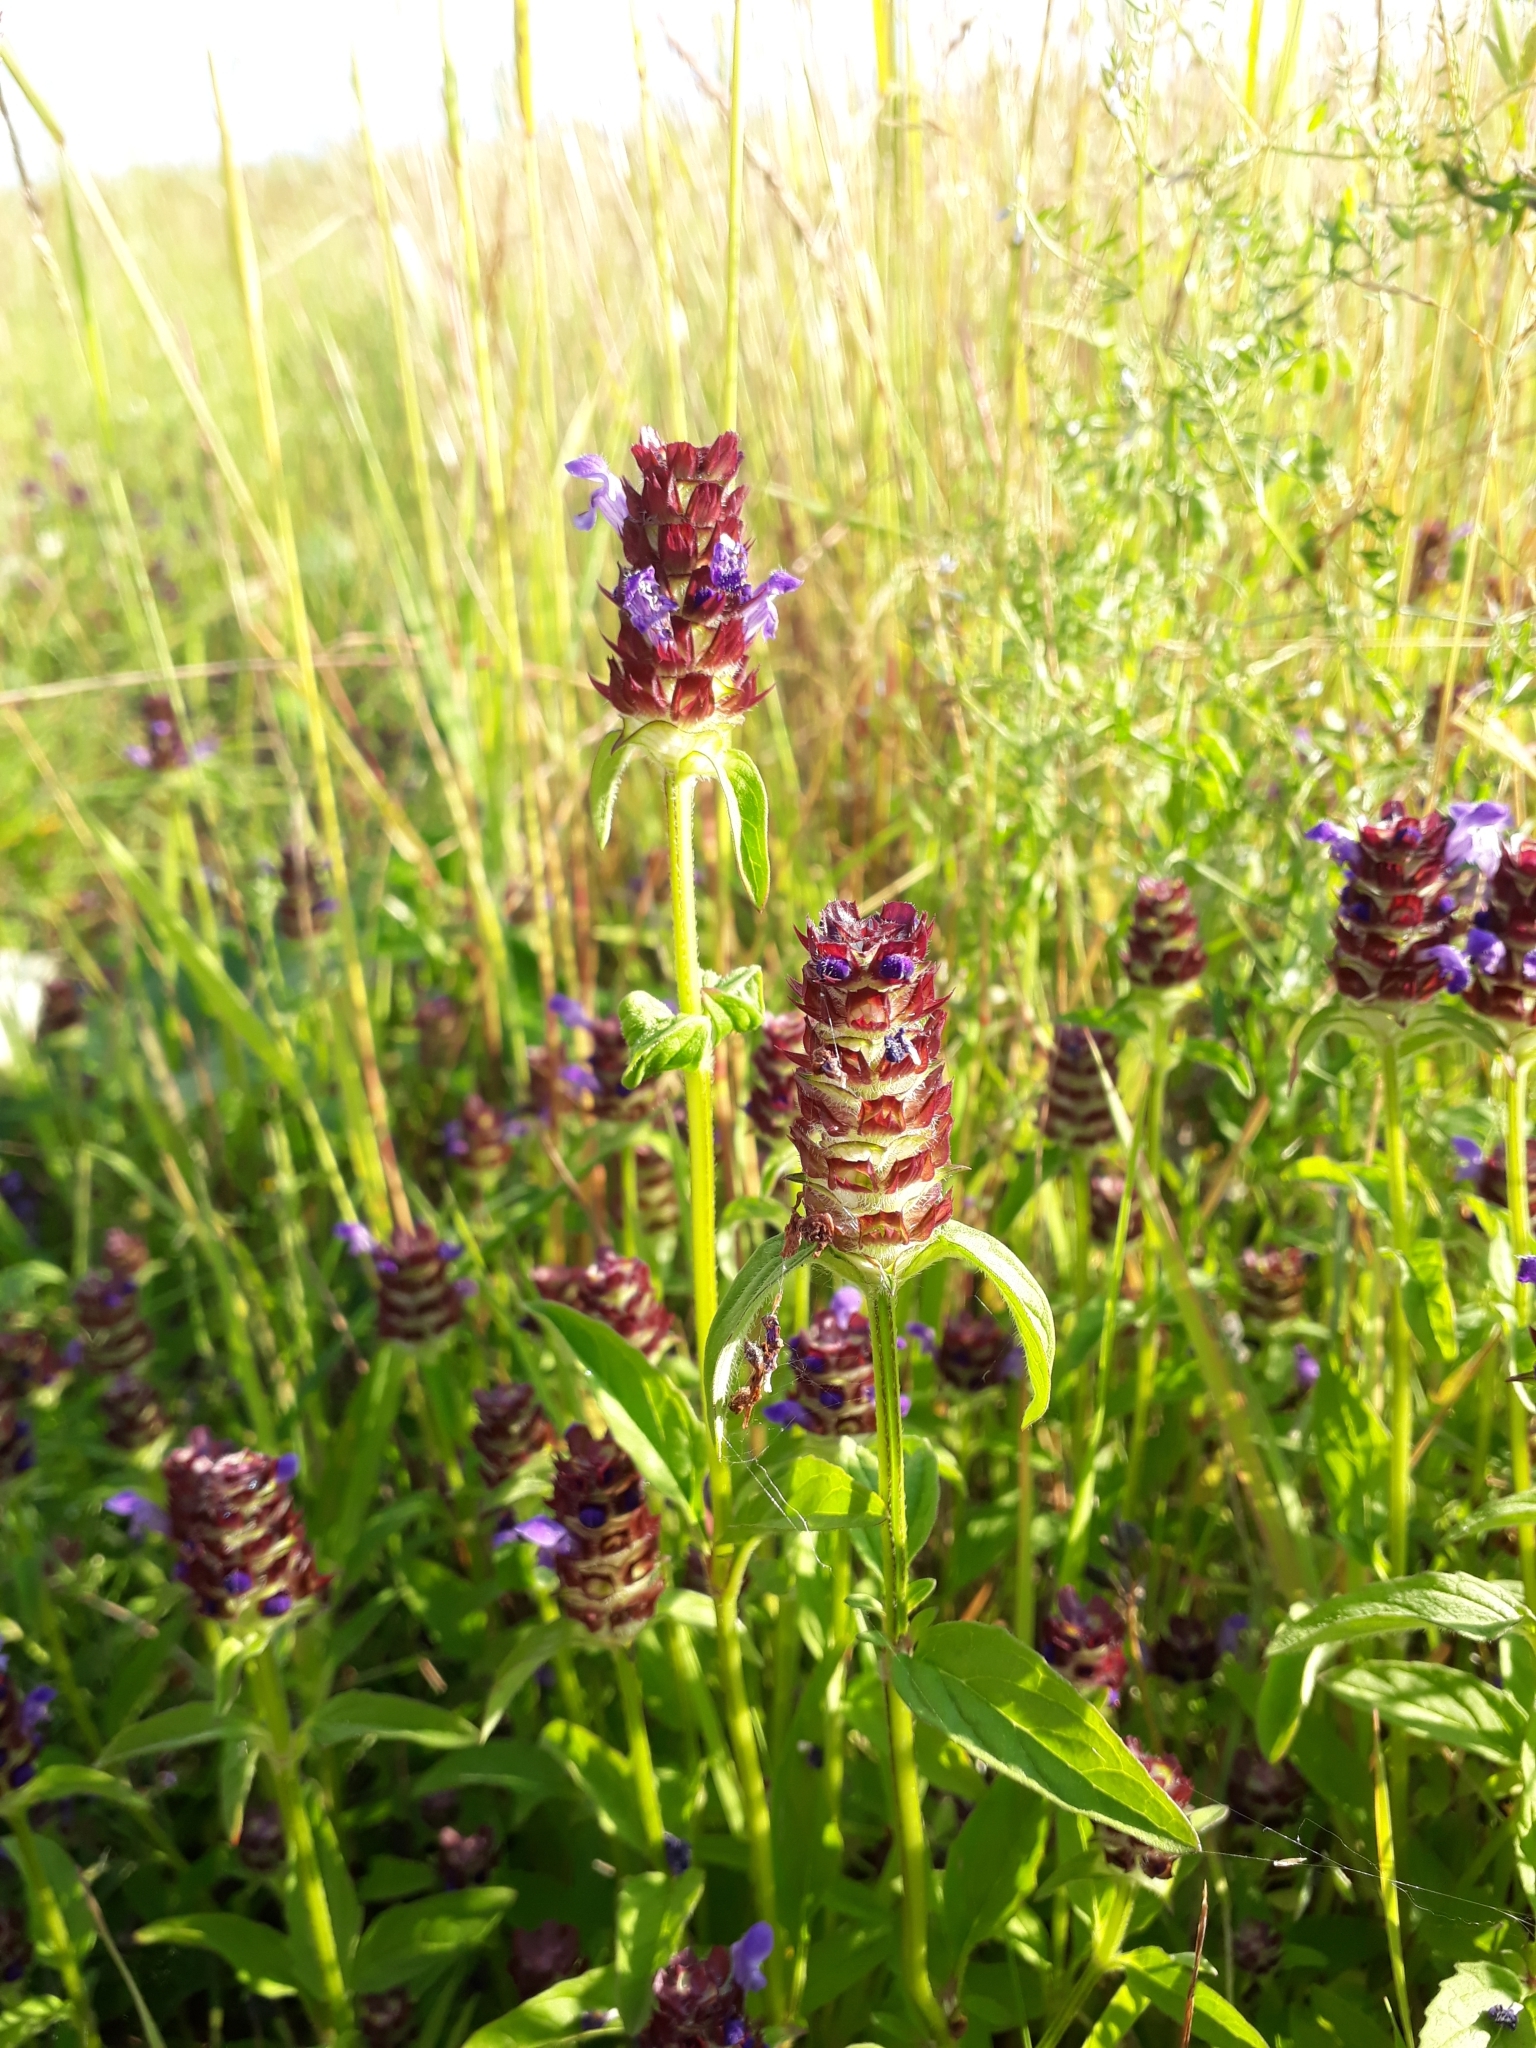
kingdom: Plantae
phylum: Tracheophyta
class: Magnoliopsida
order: Lamiales
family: Lamiaceae
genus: Prunella
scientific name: Prunella vulgaris
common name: Heal-all
